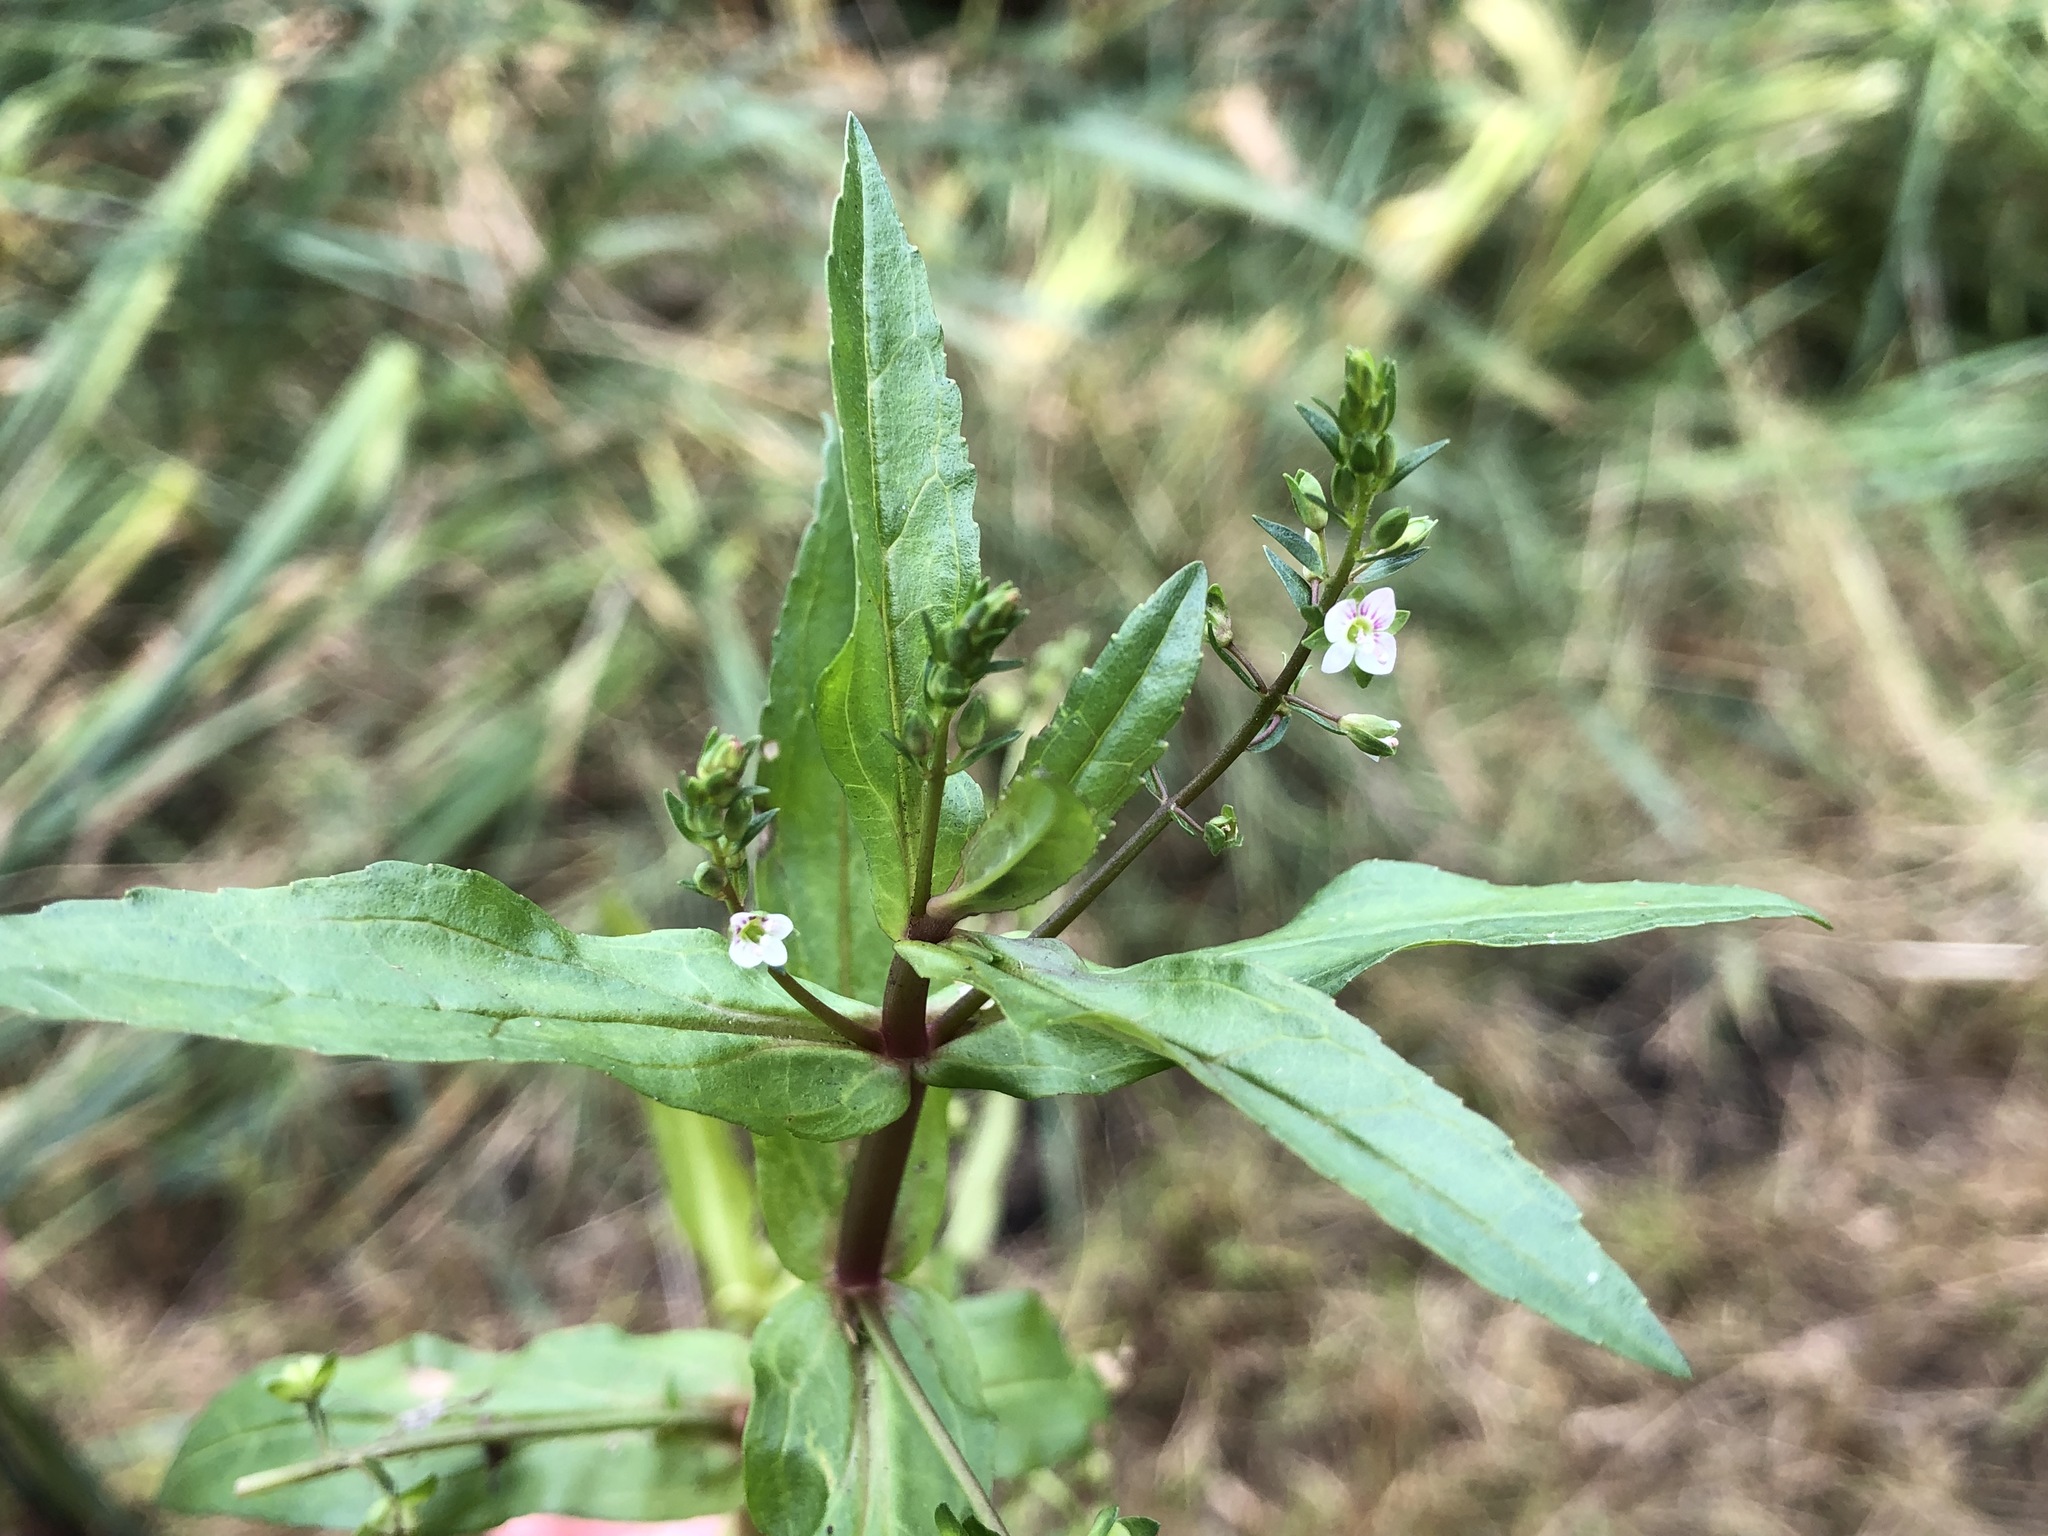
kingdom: Plantae
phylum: Tracheophyta
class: Magnoliopsida
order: Lamiales
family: Plantaginaceae
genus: Veronica
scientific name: Veronica catenata
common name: Pink water-speedwell
